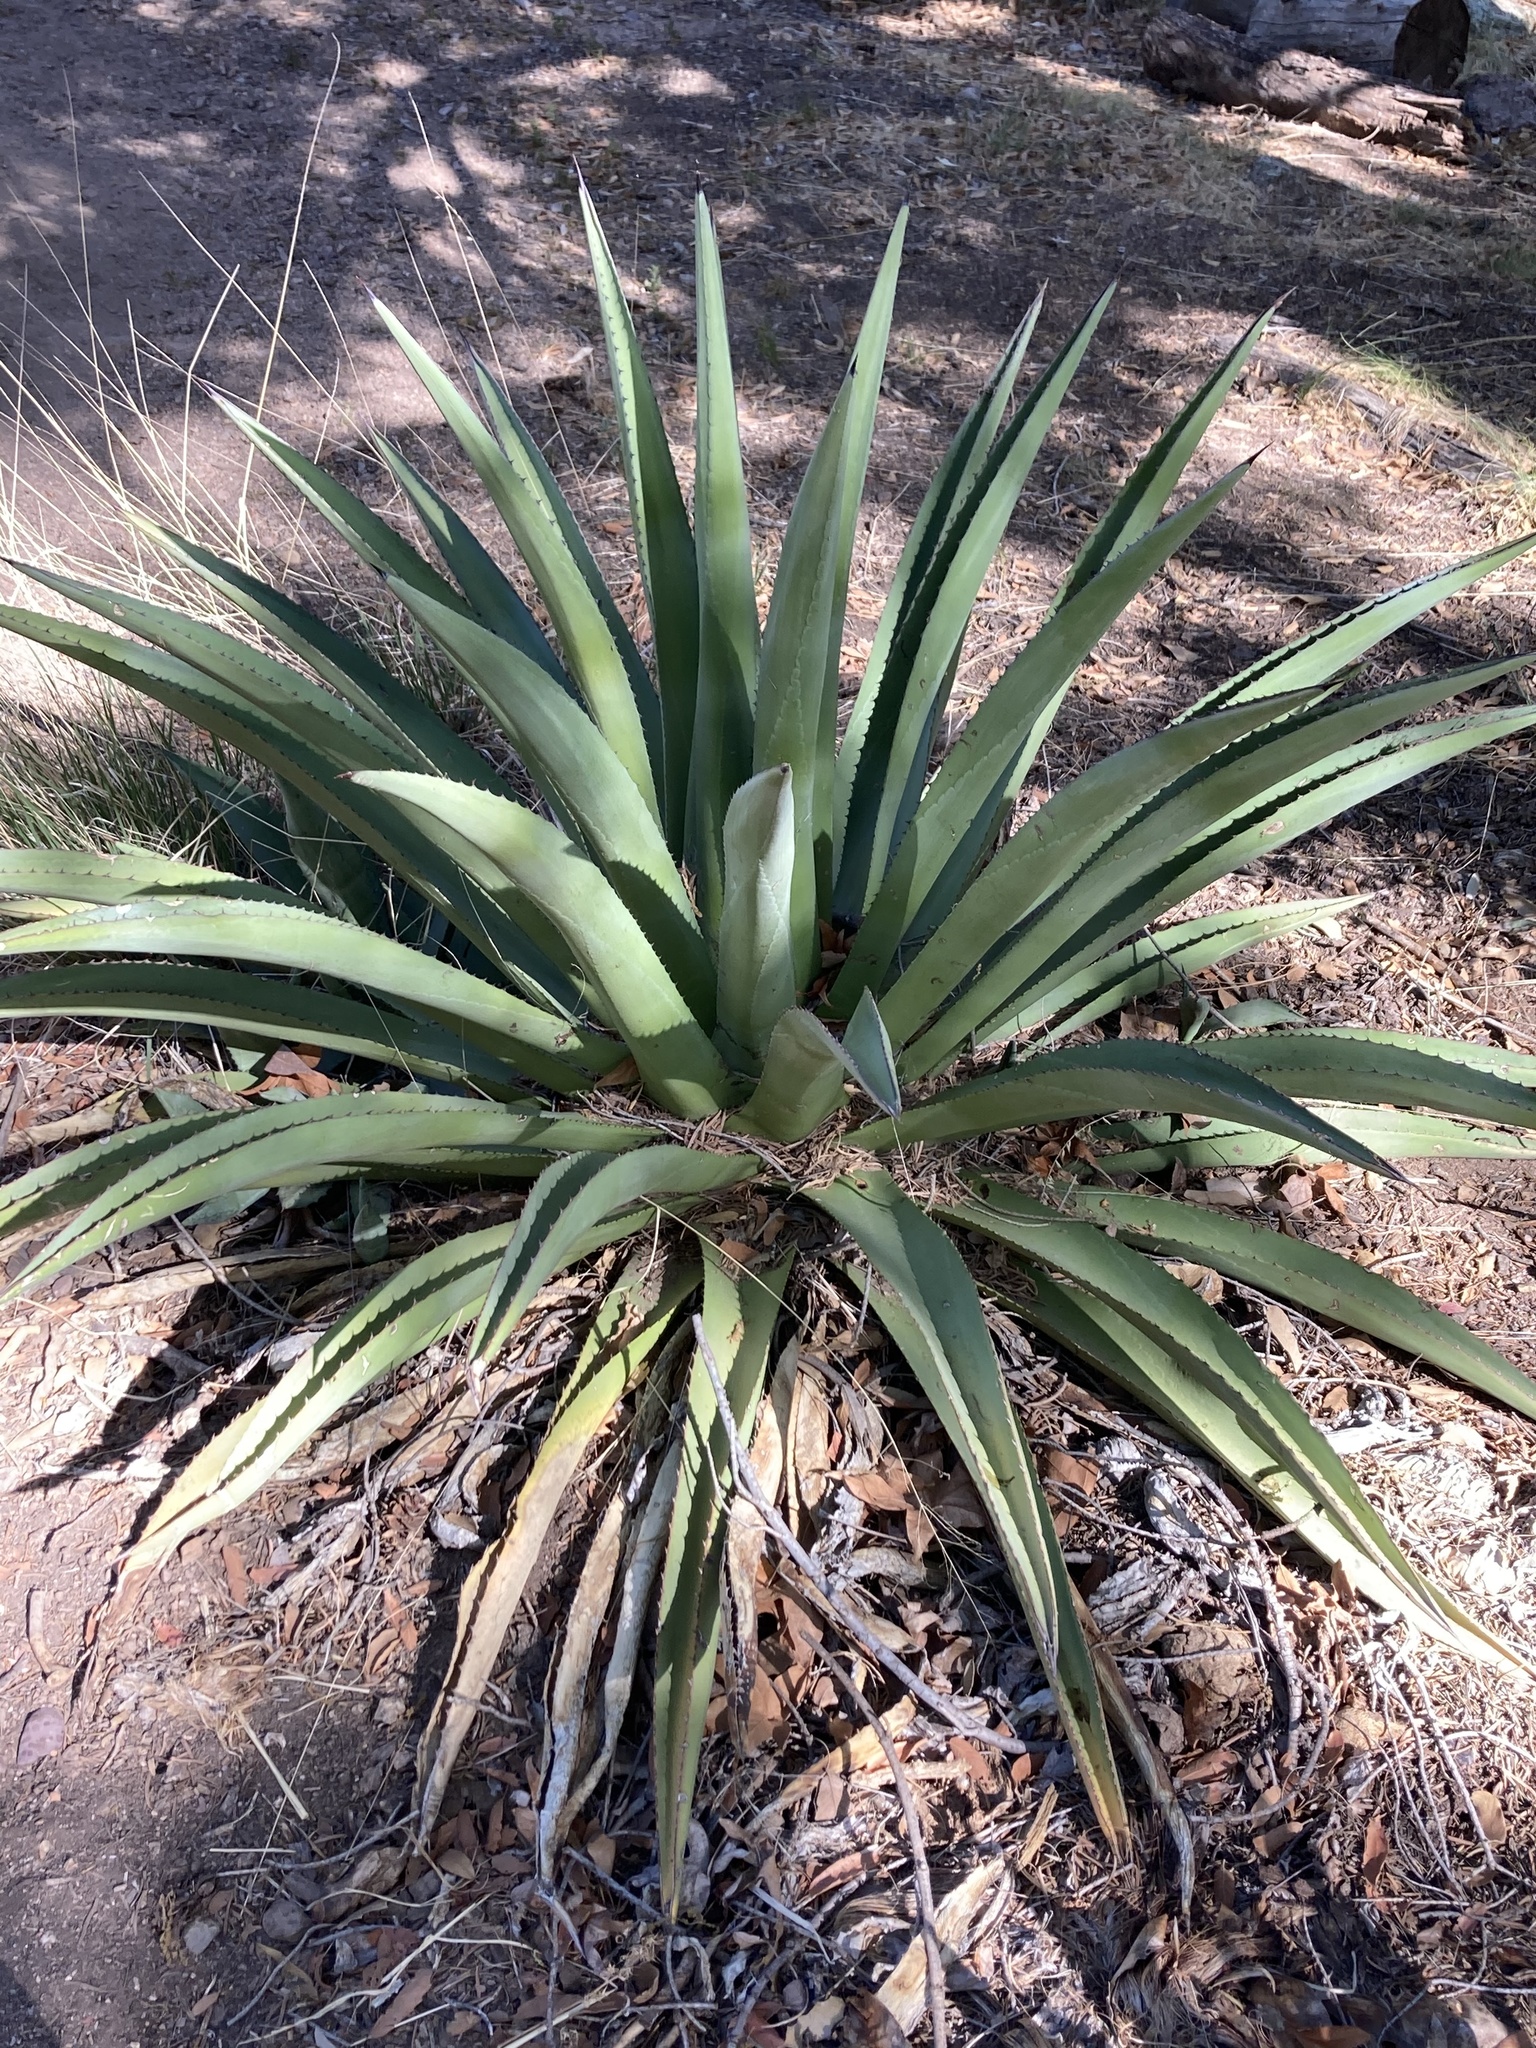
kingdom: Plantae
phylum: Tracheophyta
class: Liliopsida
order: Asparagales
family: Asparagaceae
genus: Agave
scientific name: Agave palmeri
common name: Palmer agave
